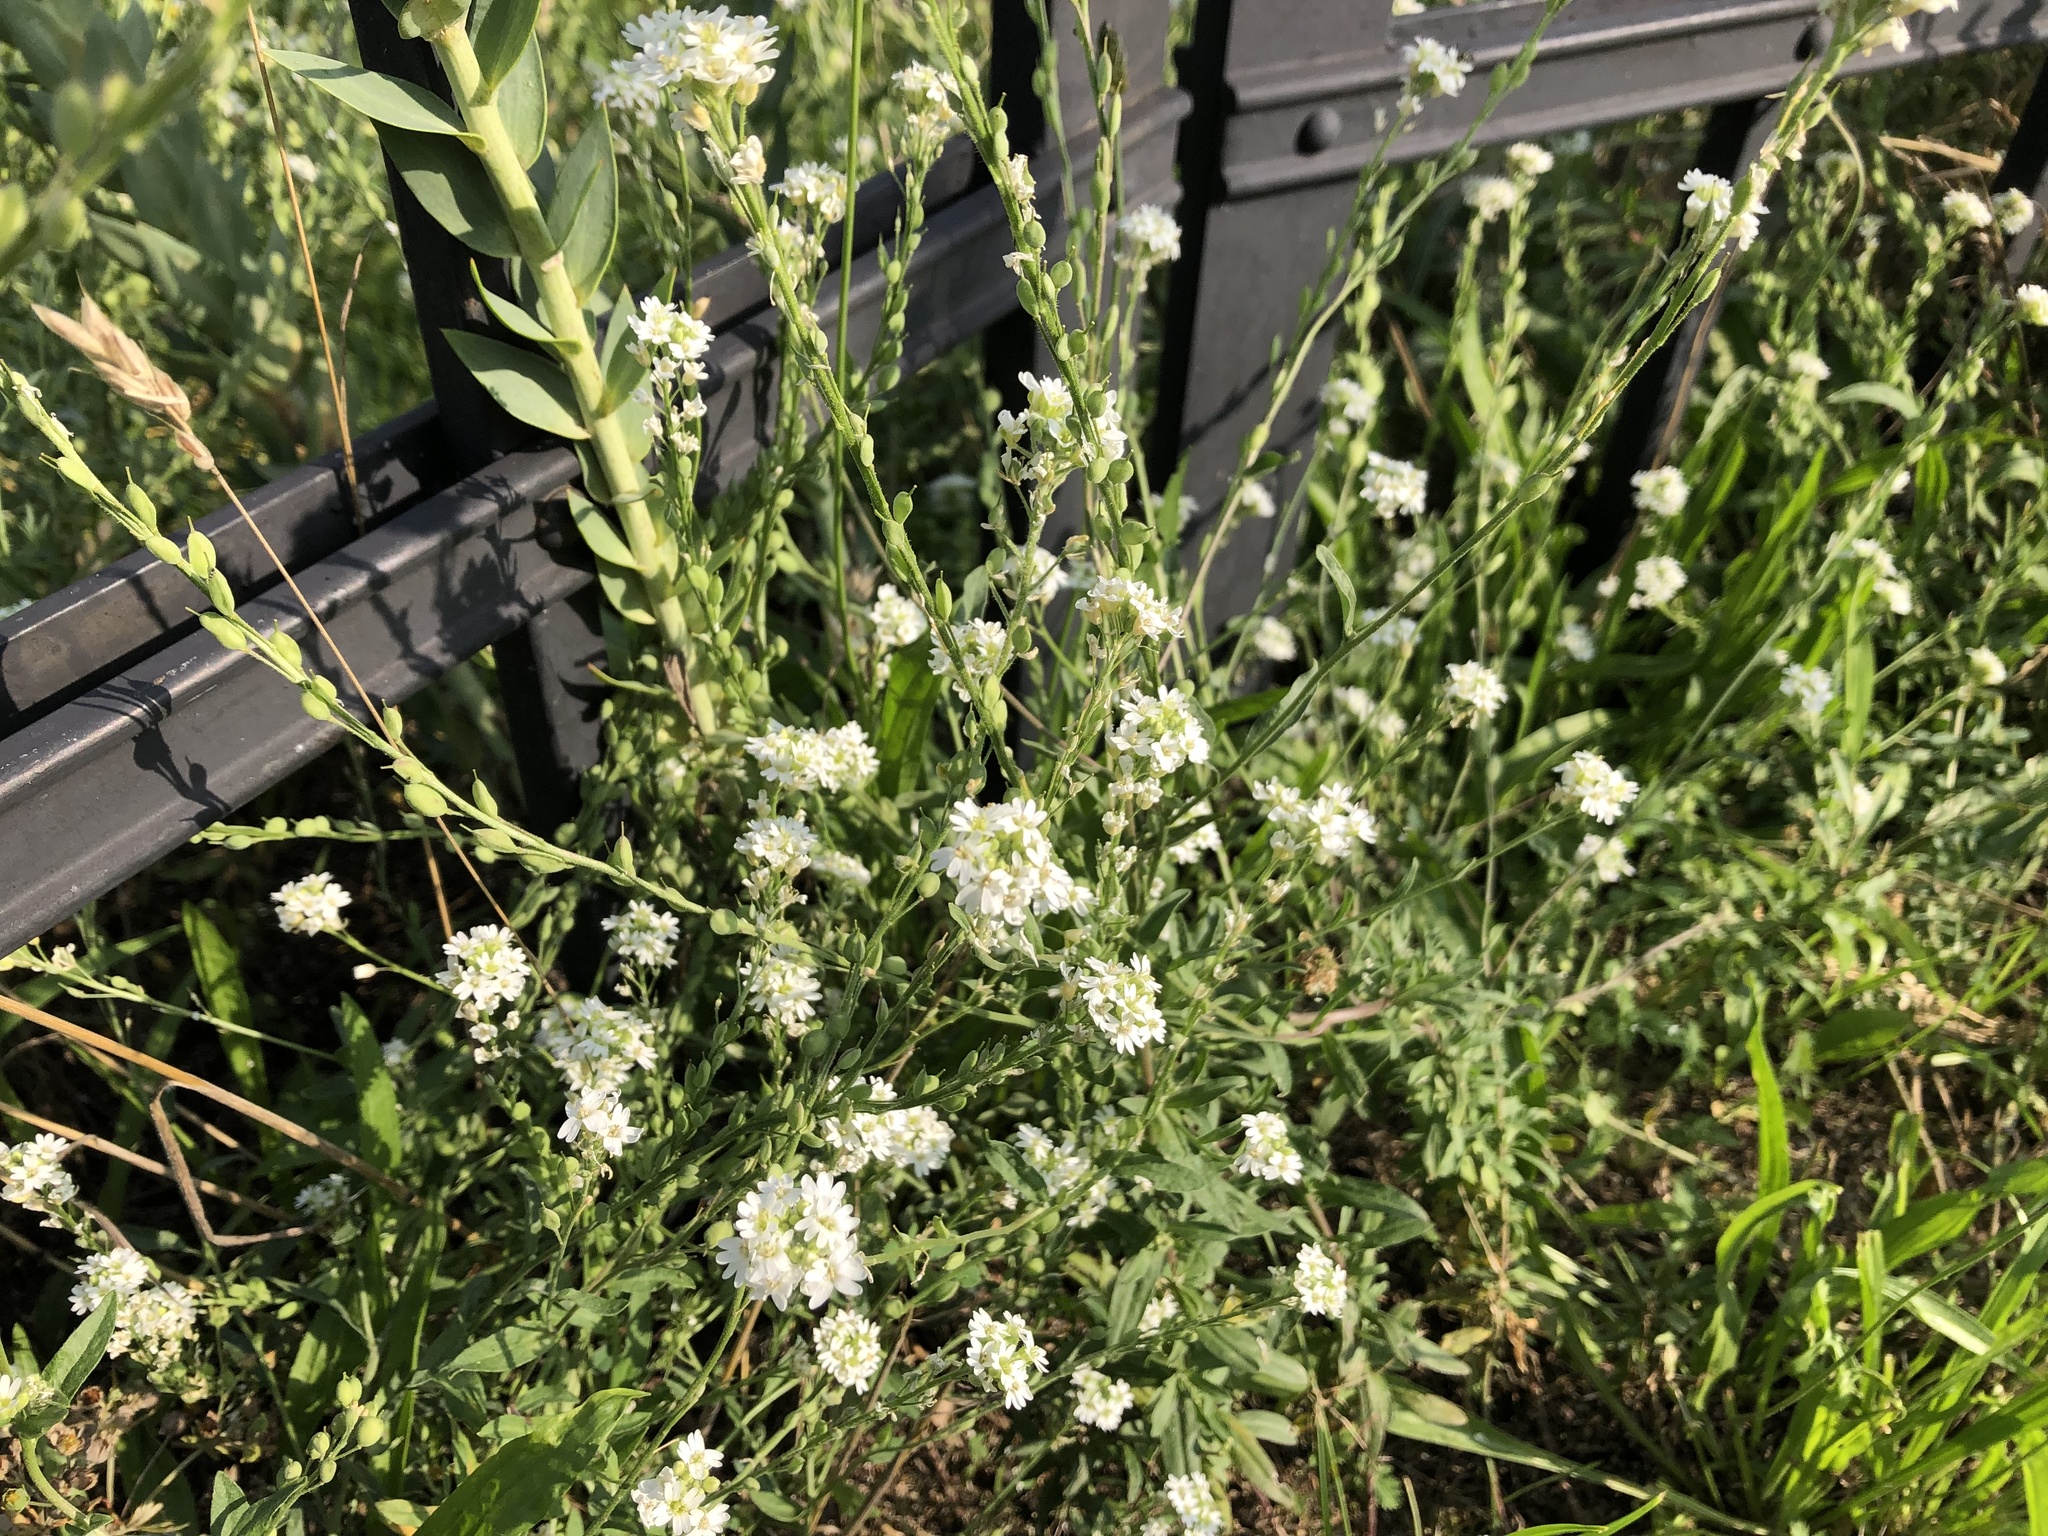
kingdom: Plantae
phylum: Tracheophyta
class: Magnoliopsida
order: Brassicales
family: Brassicaceae
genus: Berteroa
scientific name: Berteroa incana
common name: Hoary alison
